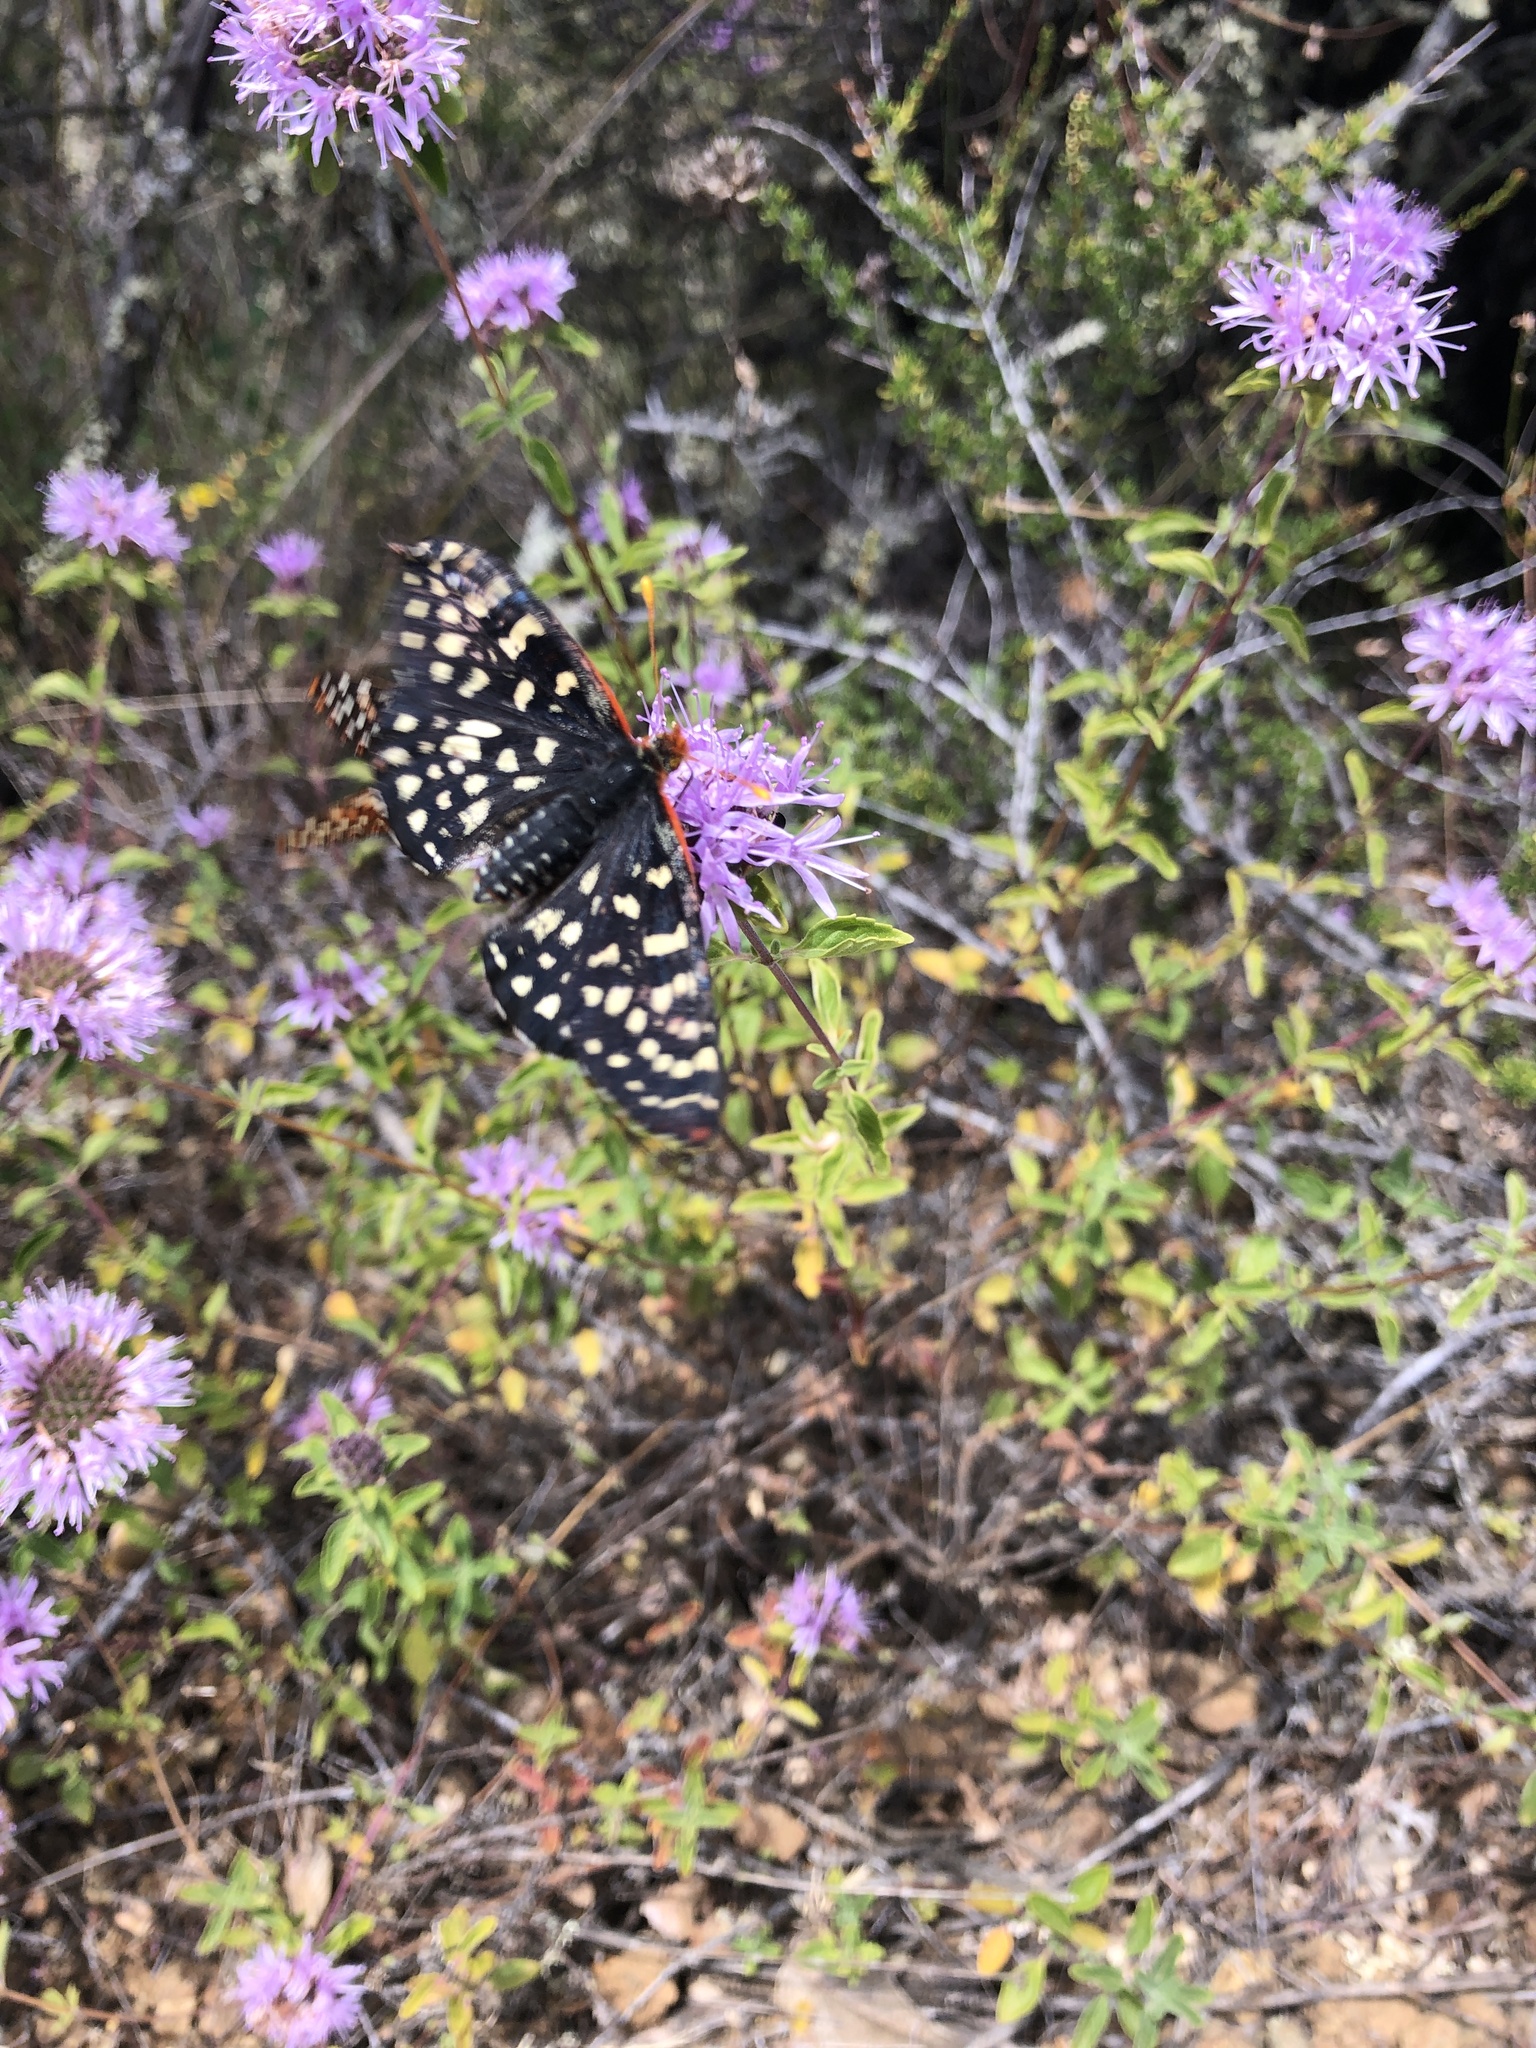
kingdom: Animalia
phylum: Arthropoda
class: Insecta
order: Lepidoptera
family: Nymphalidae
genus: Occidryas
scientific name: Occidryas chalcedona
